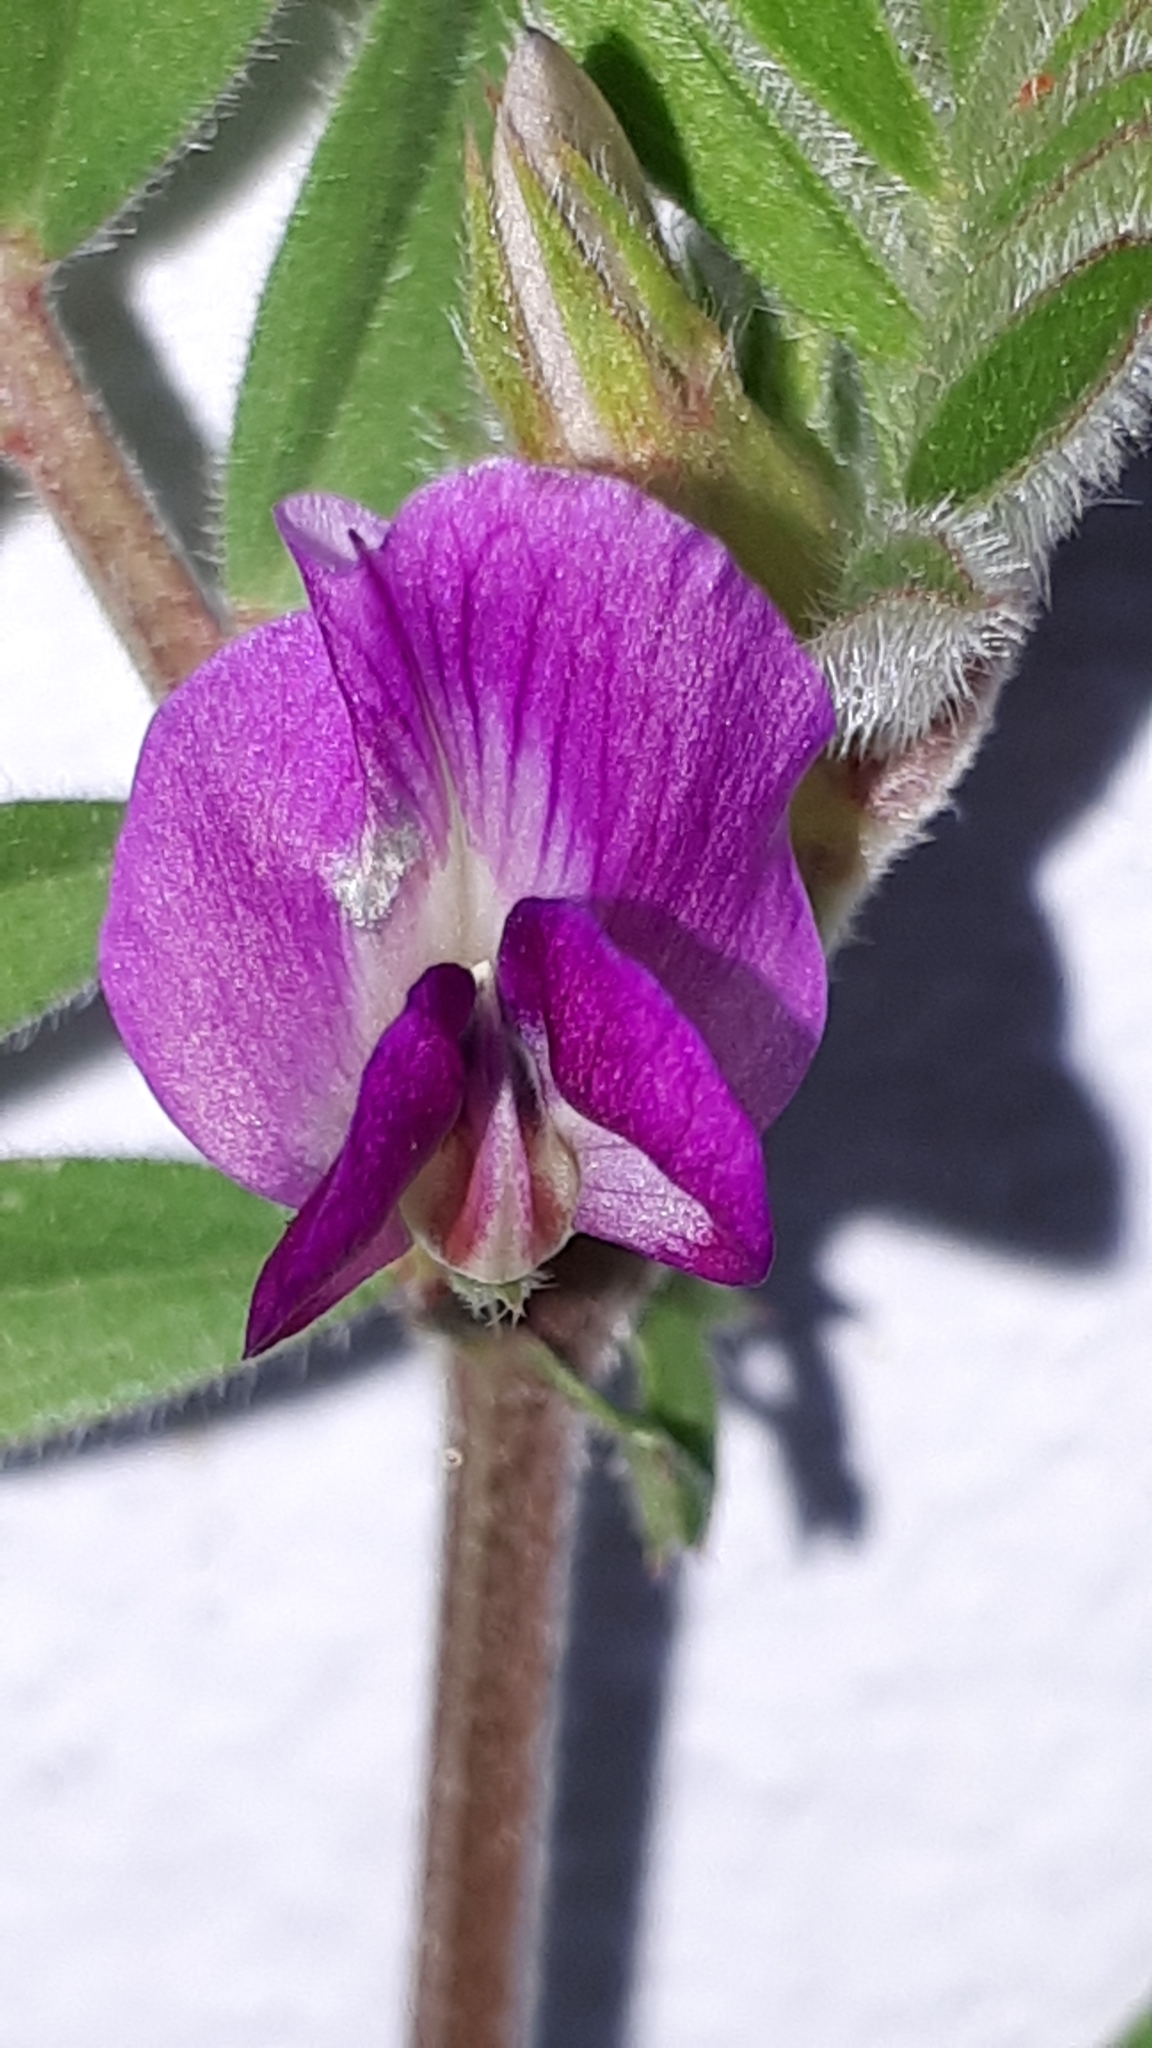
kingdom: Plantae
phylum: Tracheophyta
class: Magnoliopsida
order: Fabales
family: Fabaceae
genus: Vicia
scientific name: Vicia sativa
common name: Garden vetch
